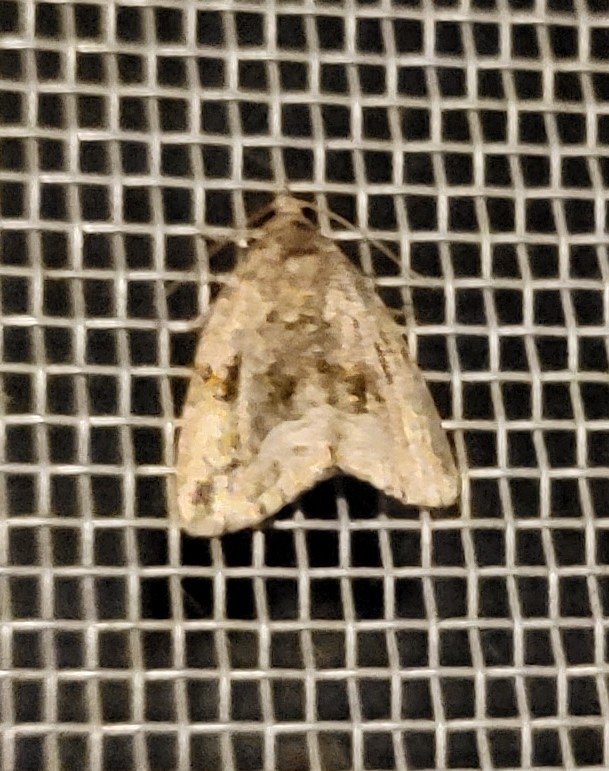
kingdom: Animalia
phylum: Arthropoda
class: Insecta
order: Lepidoptera
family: Noctuidae
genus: Protodeltote
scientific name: Protodeltote muscosula
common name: Large mossy glyph
